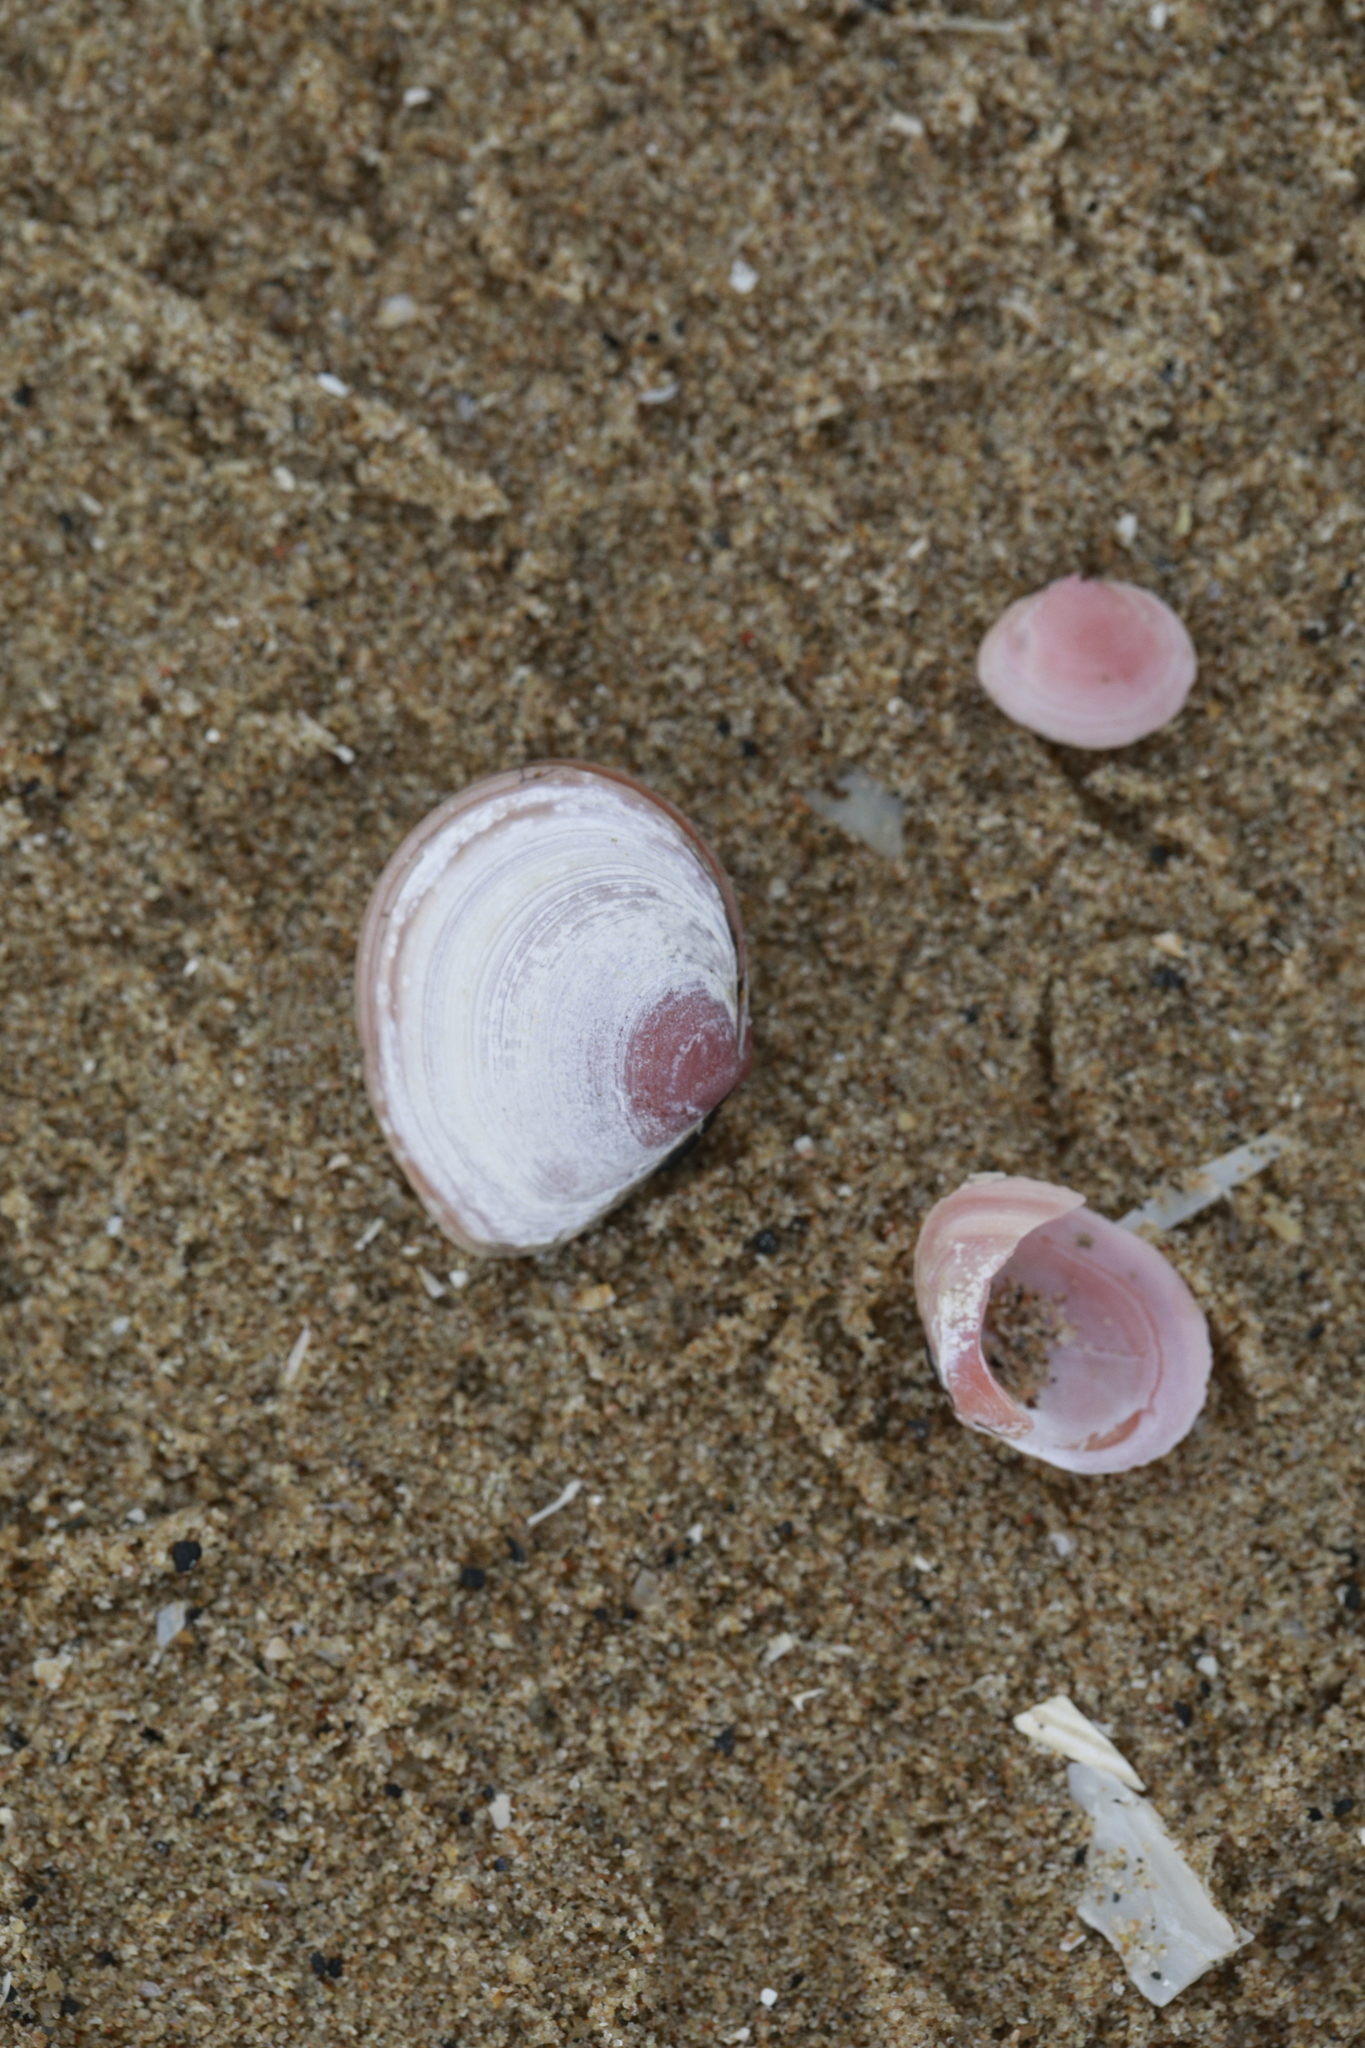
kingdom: Animalia
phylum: Mollusca
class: Bivalvia
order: Cardiida
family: Tellinidae
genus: Macoma
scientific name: Macoma balthica
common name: Baltic tellin
